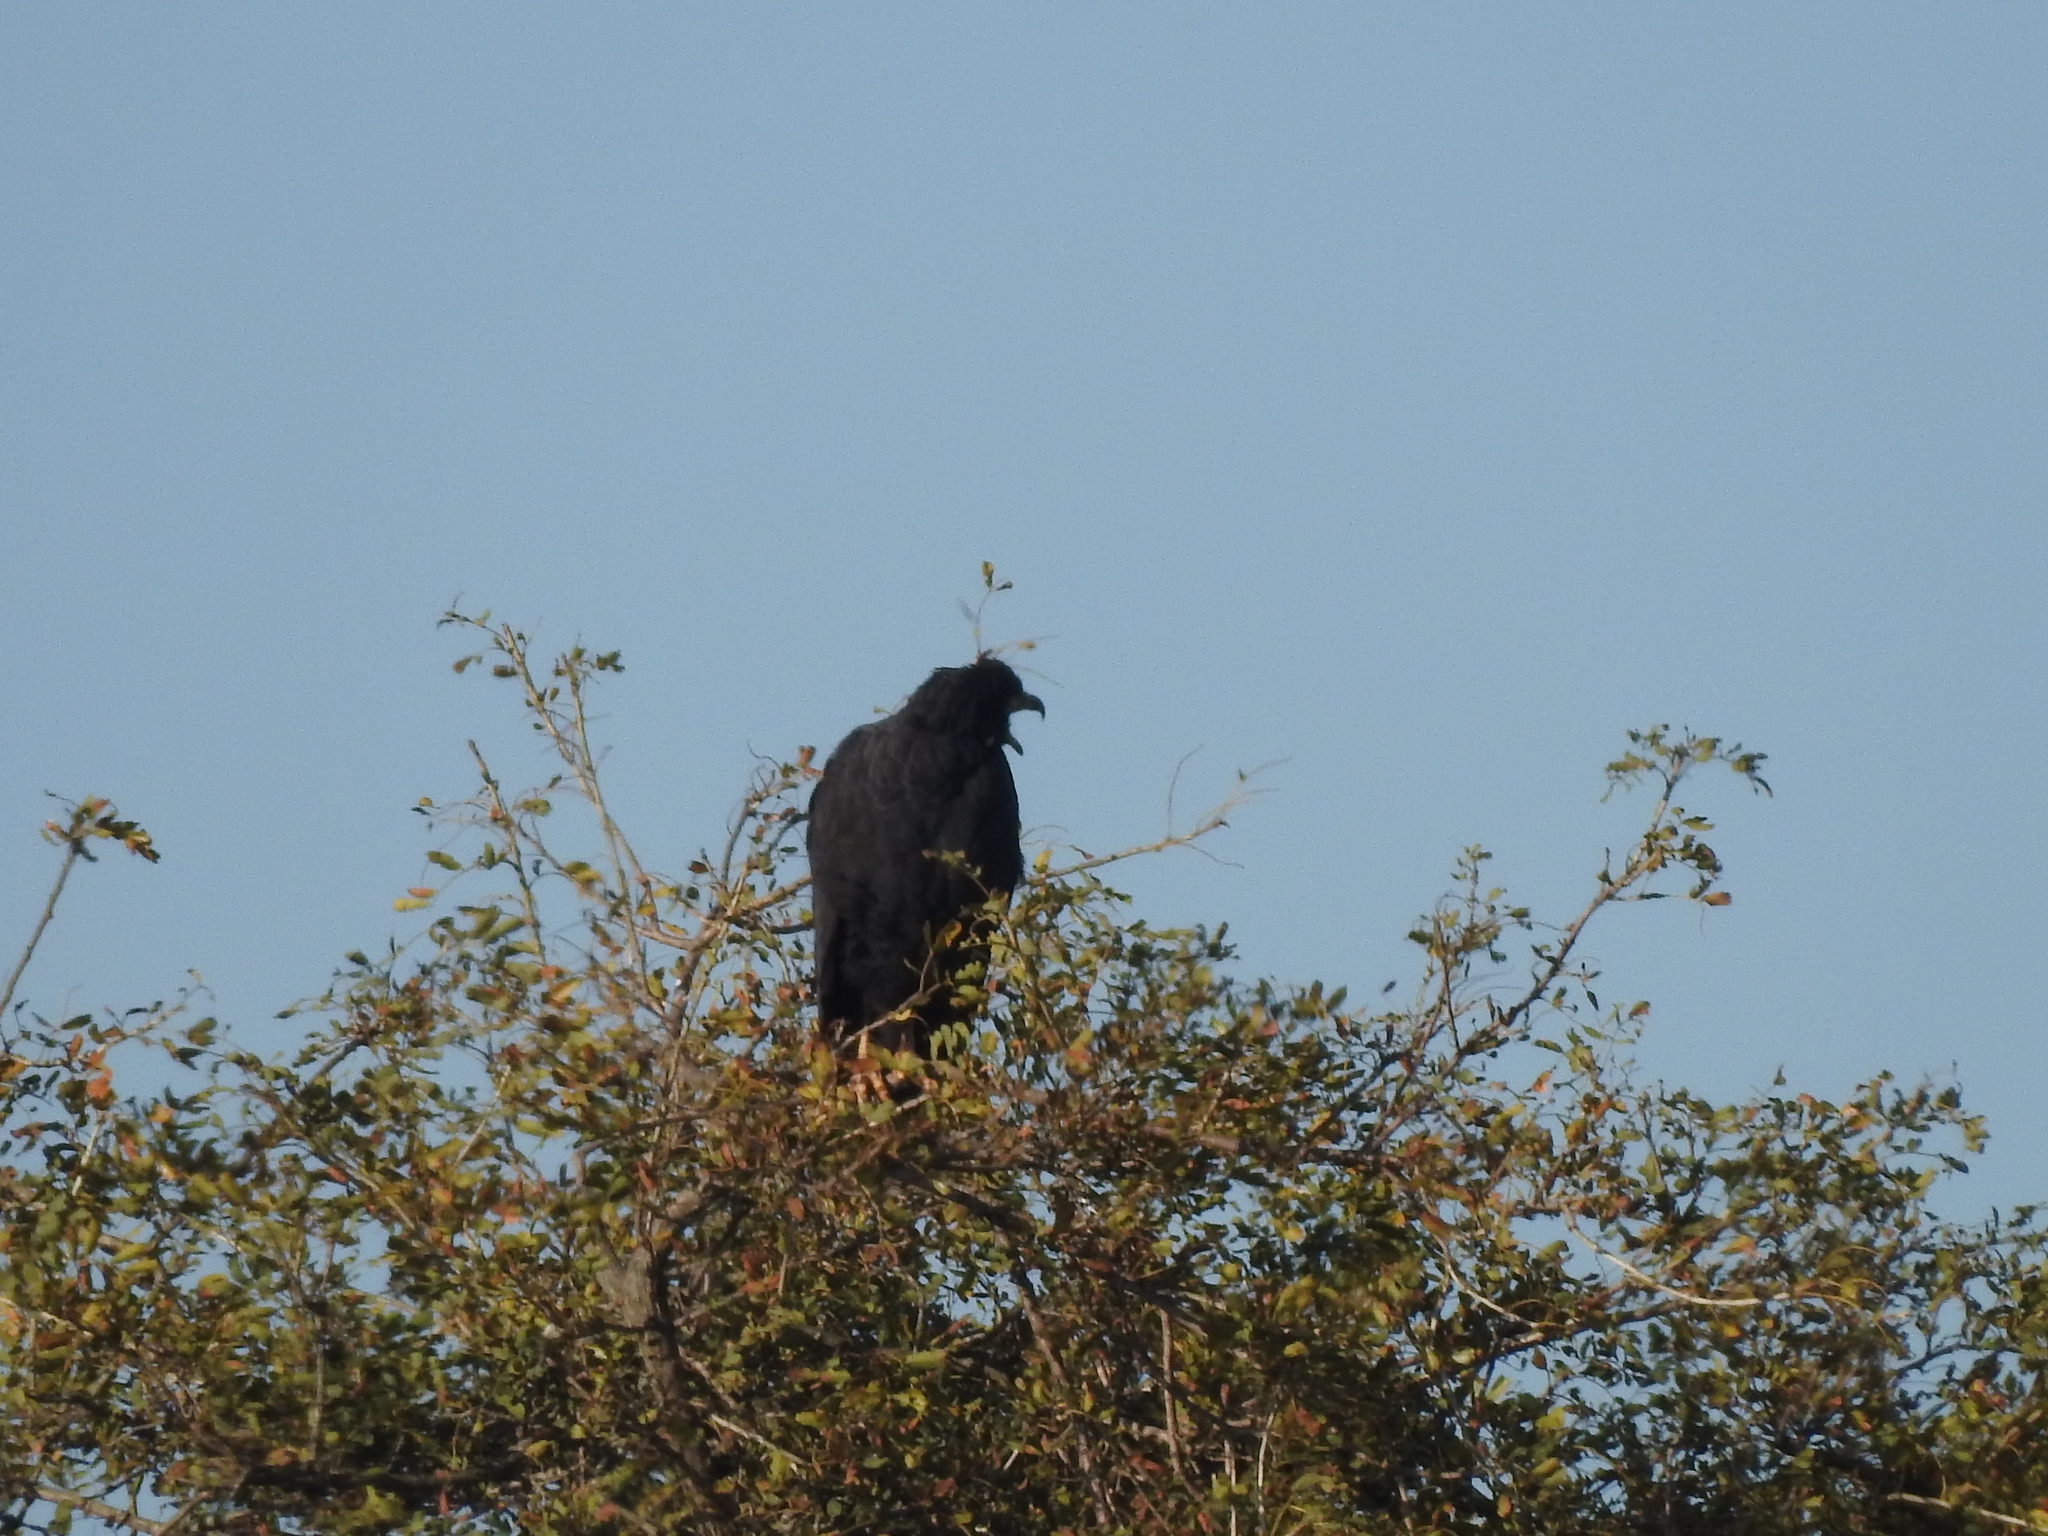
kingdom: Animalia
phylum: Chordata
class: Aves
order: Accipitriformes
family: Accipitridae
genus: Buteogallus
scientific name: Buteogallus urubitinga
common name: Great black hawk
